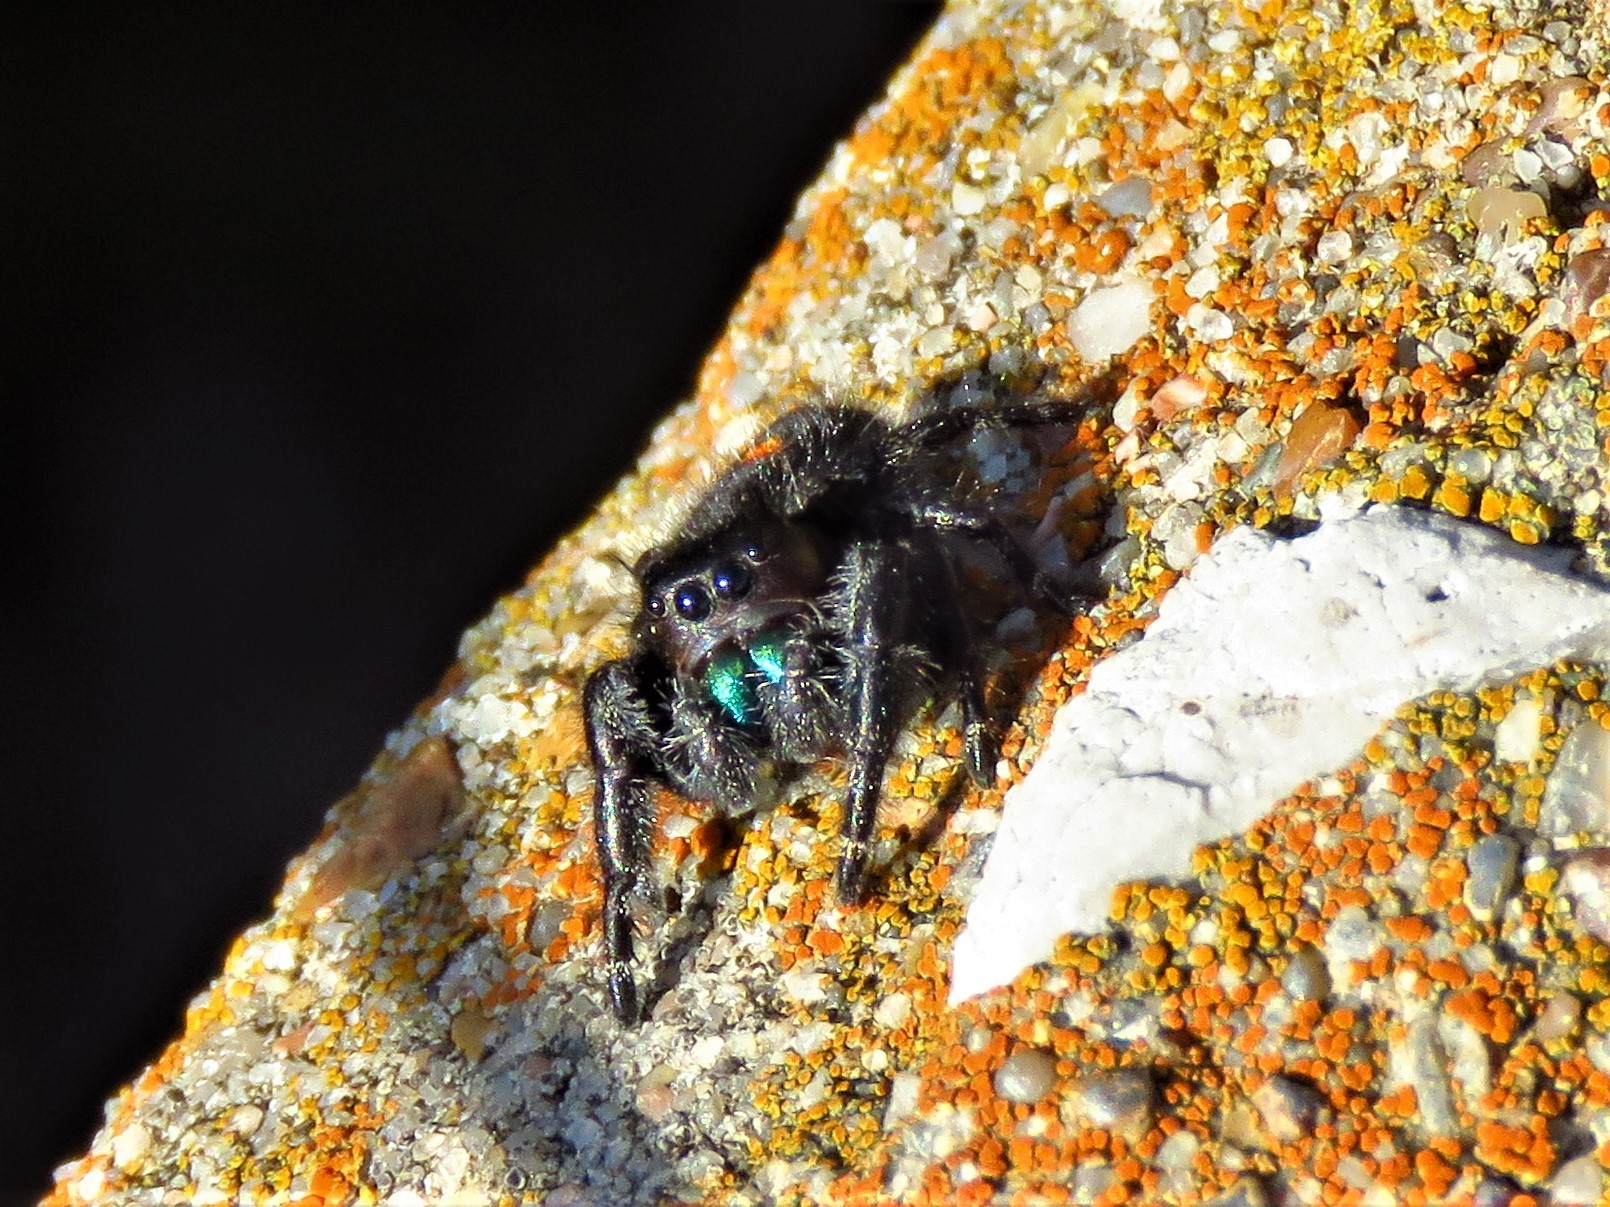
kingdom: Animalia
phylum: Arthropoda
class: Arachnida
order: Araneae
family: Salticidae
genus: Phidippus
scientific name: Phidippus audax
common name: Bold jumper
